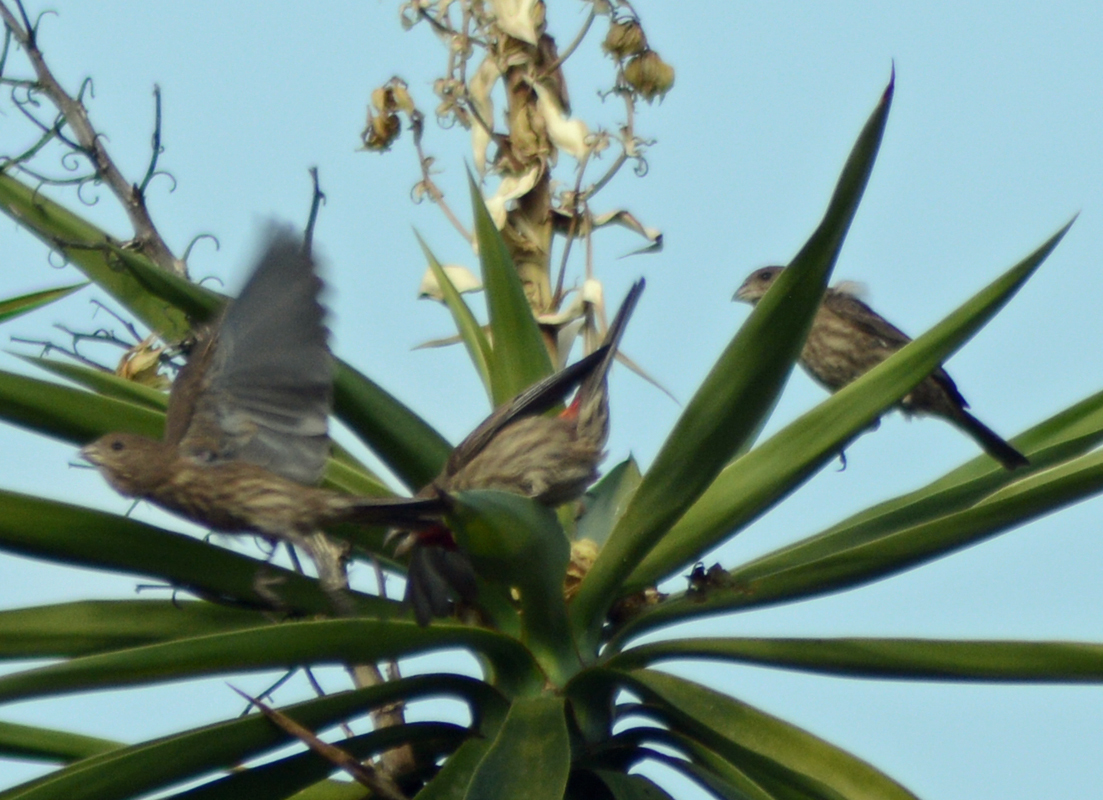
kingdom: Animalia
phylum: Chordata
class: Aves
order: Passeriformes
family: Fringillidae
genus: Haemorhous
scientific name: Haemorhous mexicanus
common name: House finch
